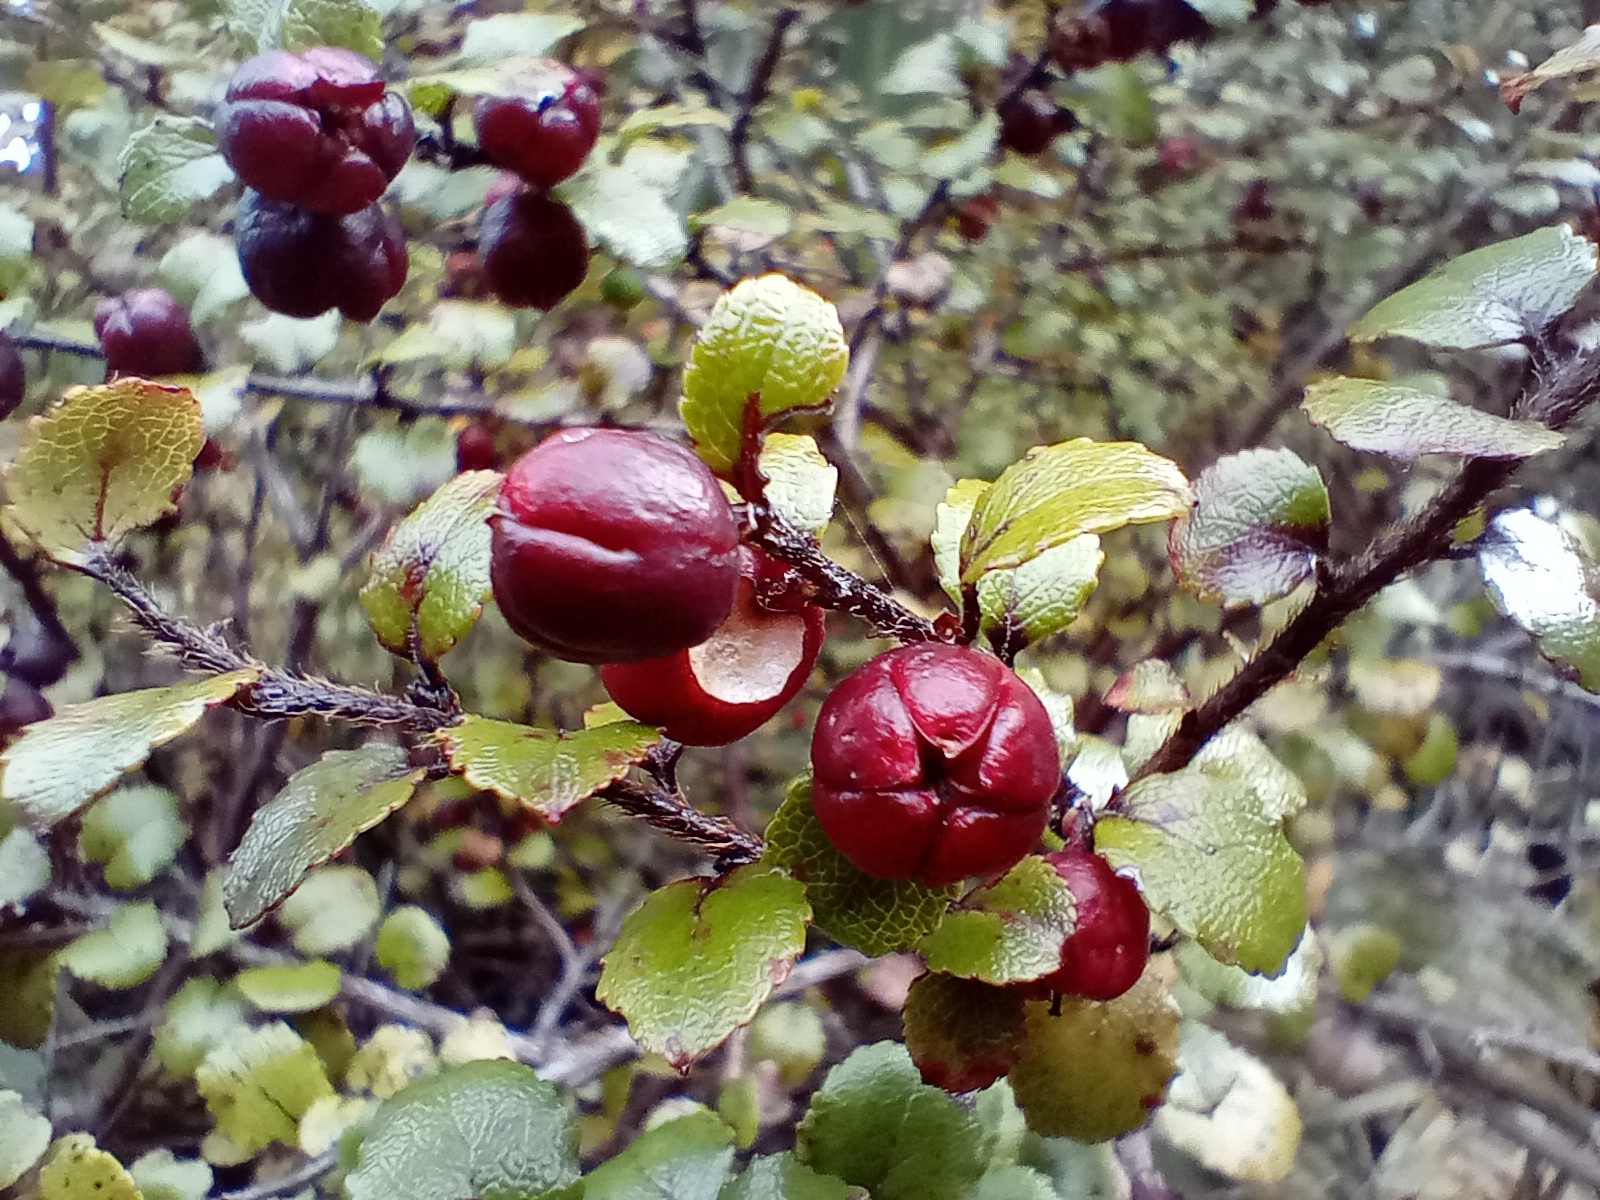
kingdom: Plantae
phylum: Tracheophyta
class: Magnoliopsida
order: Ericales
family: Ericaceae
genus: Gaultheria
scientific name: Gaultheria antipoda
